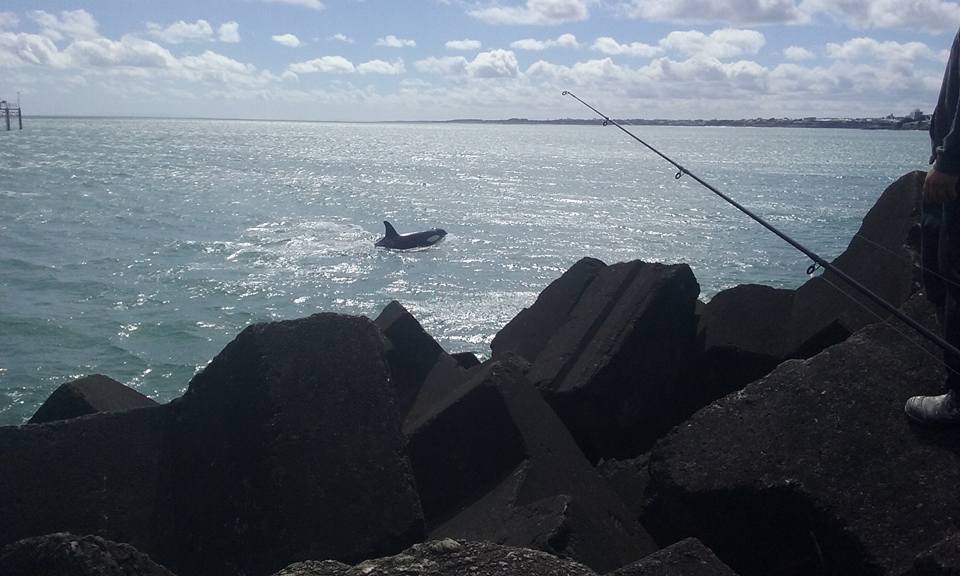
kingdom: Animalia
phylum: Chordata
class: Mammalia
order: Cetacea
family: Delphinidae
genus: Orcinus
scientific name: Orcinus orca
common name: Killer whale
